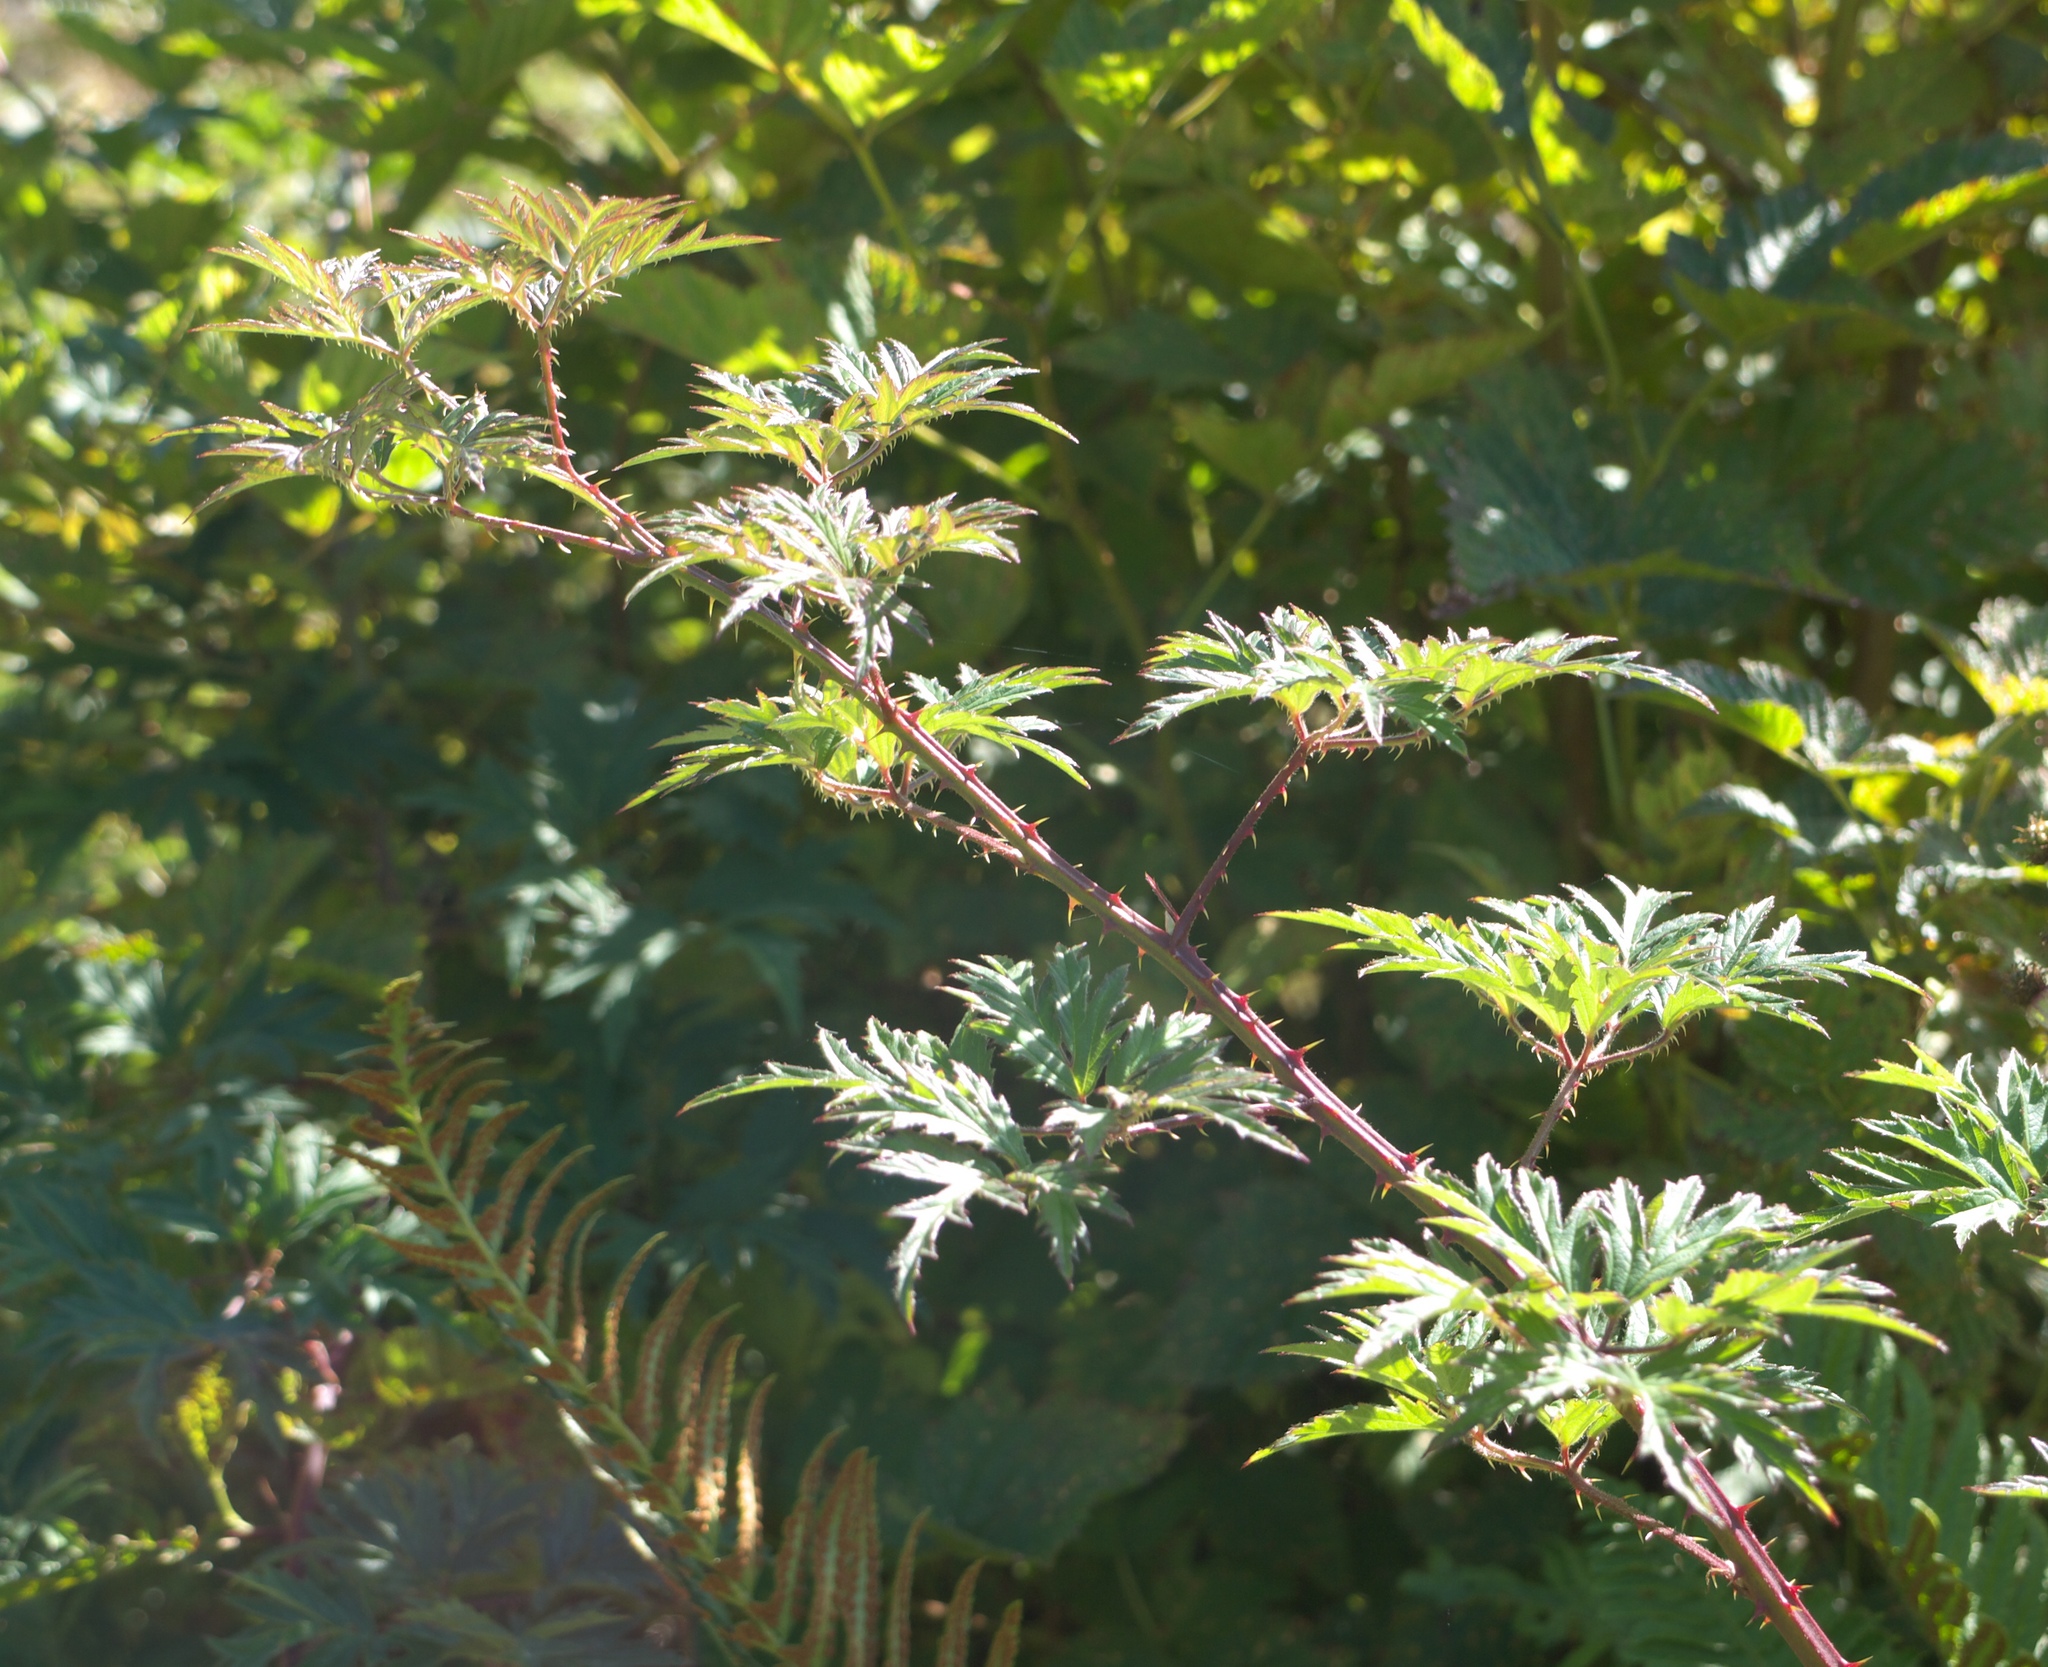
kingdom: Plantae
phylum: Tracheophyta
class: Magnoliopsida
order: Rosales
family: Rosaceae
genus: Rubus
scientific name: Rubus laciniatus
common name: Evergreen blackberry
